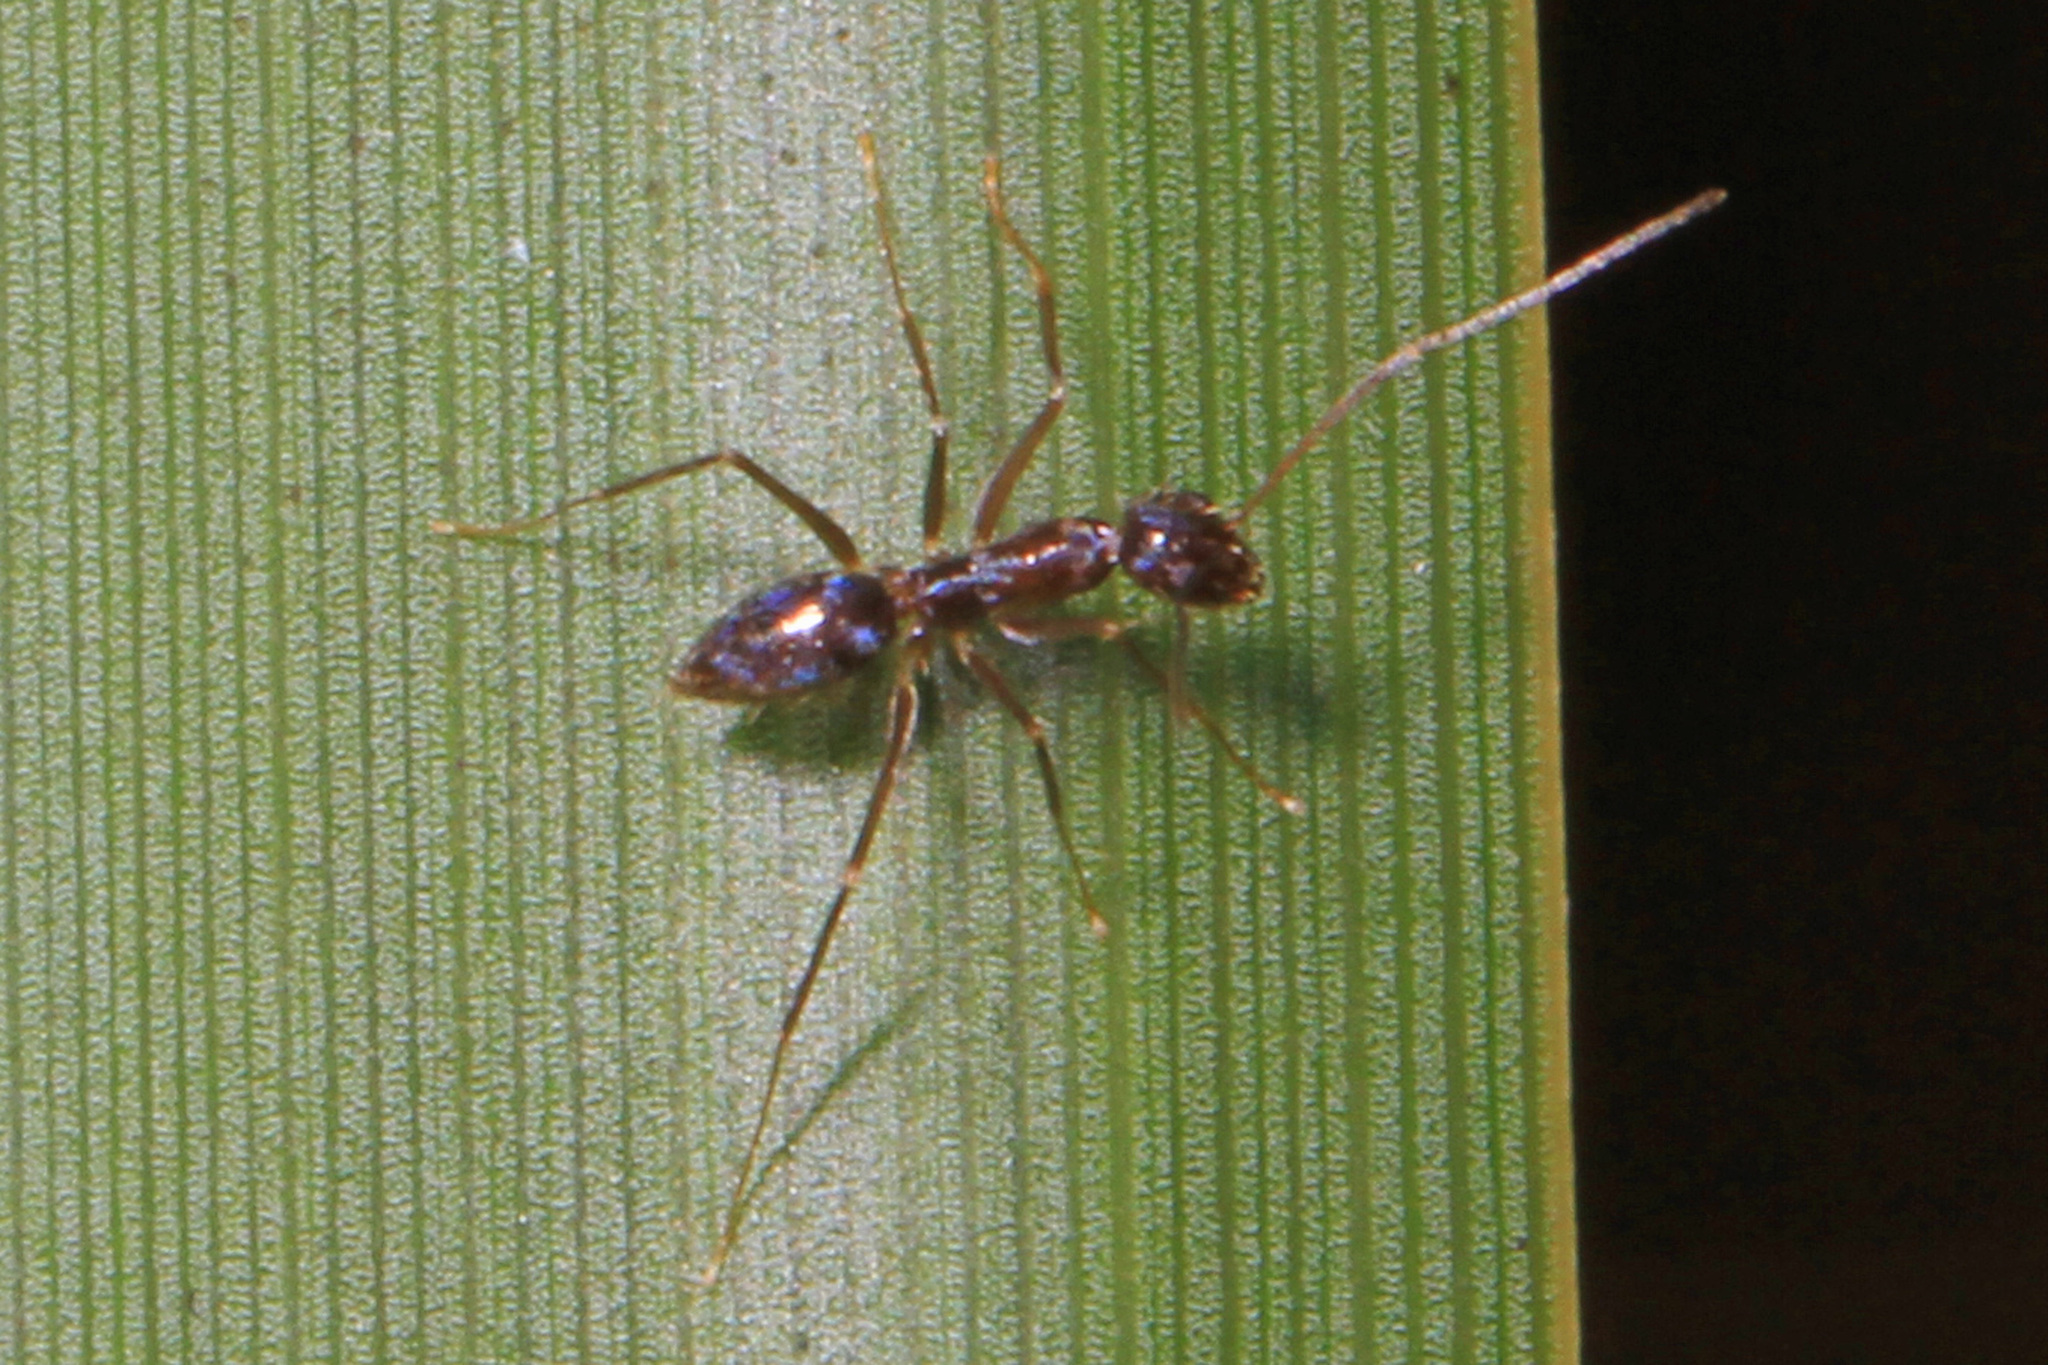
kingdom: Animalia
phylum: Arthropoda
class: Insecta
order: Hymenoptera
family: Formicidae
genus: Paratrechina
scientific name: Paratrechina longicornis
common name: Longhorned crazy ant
